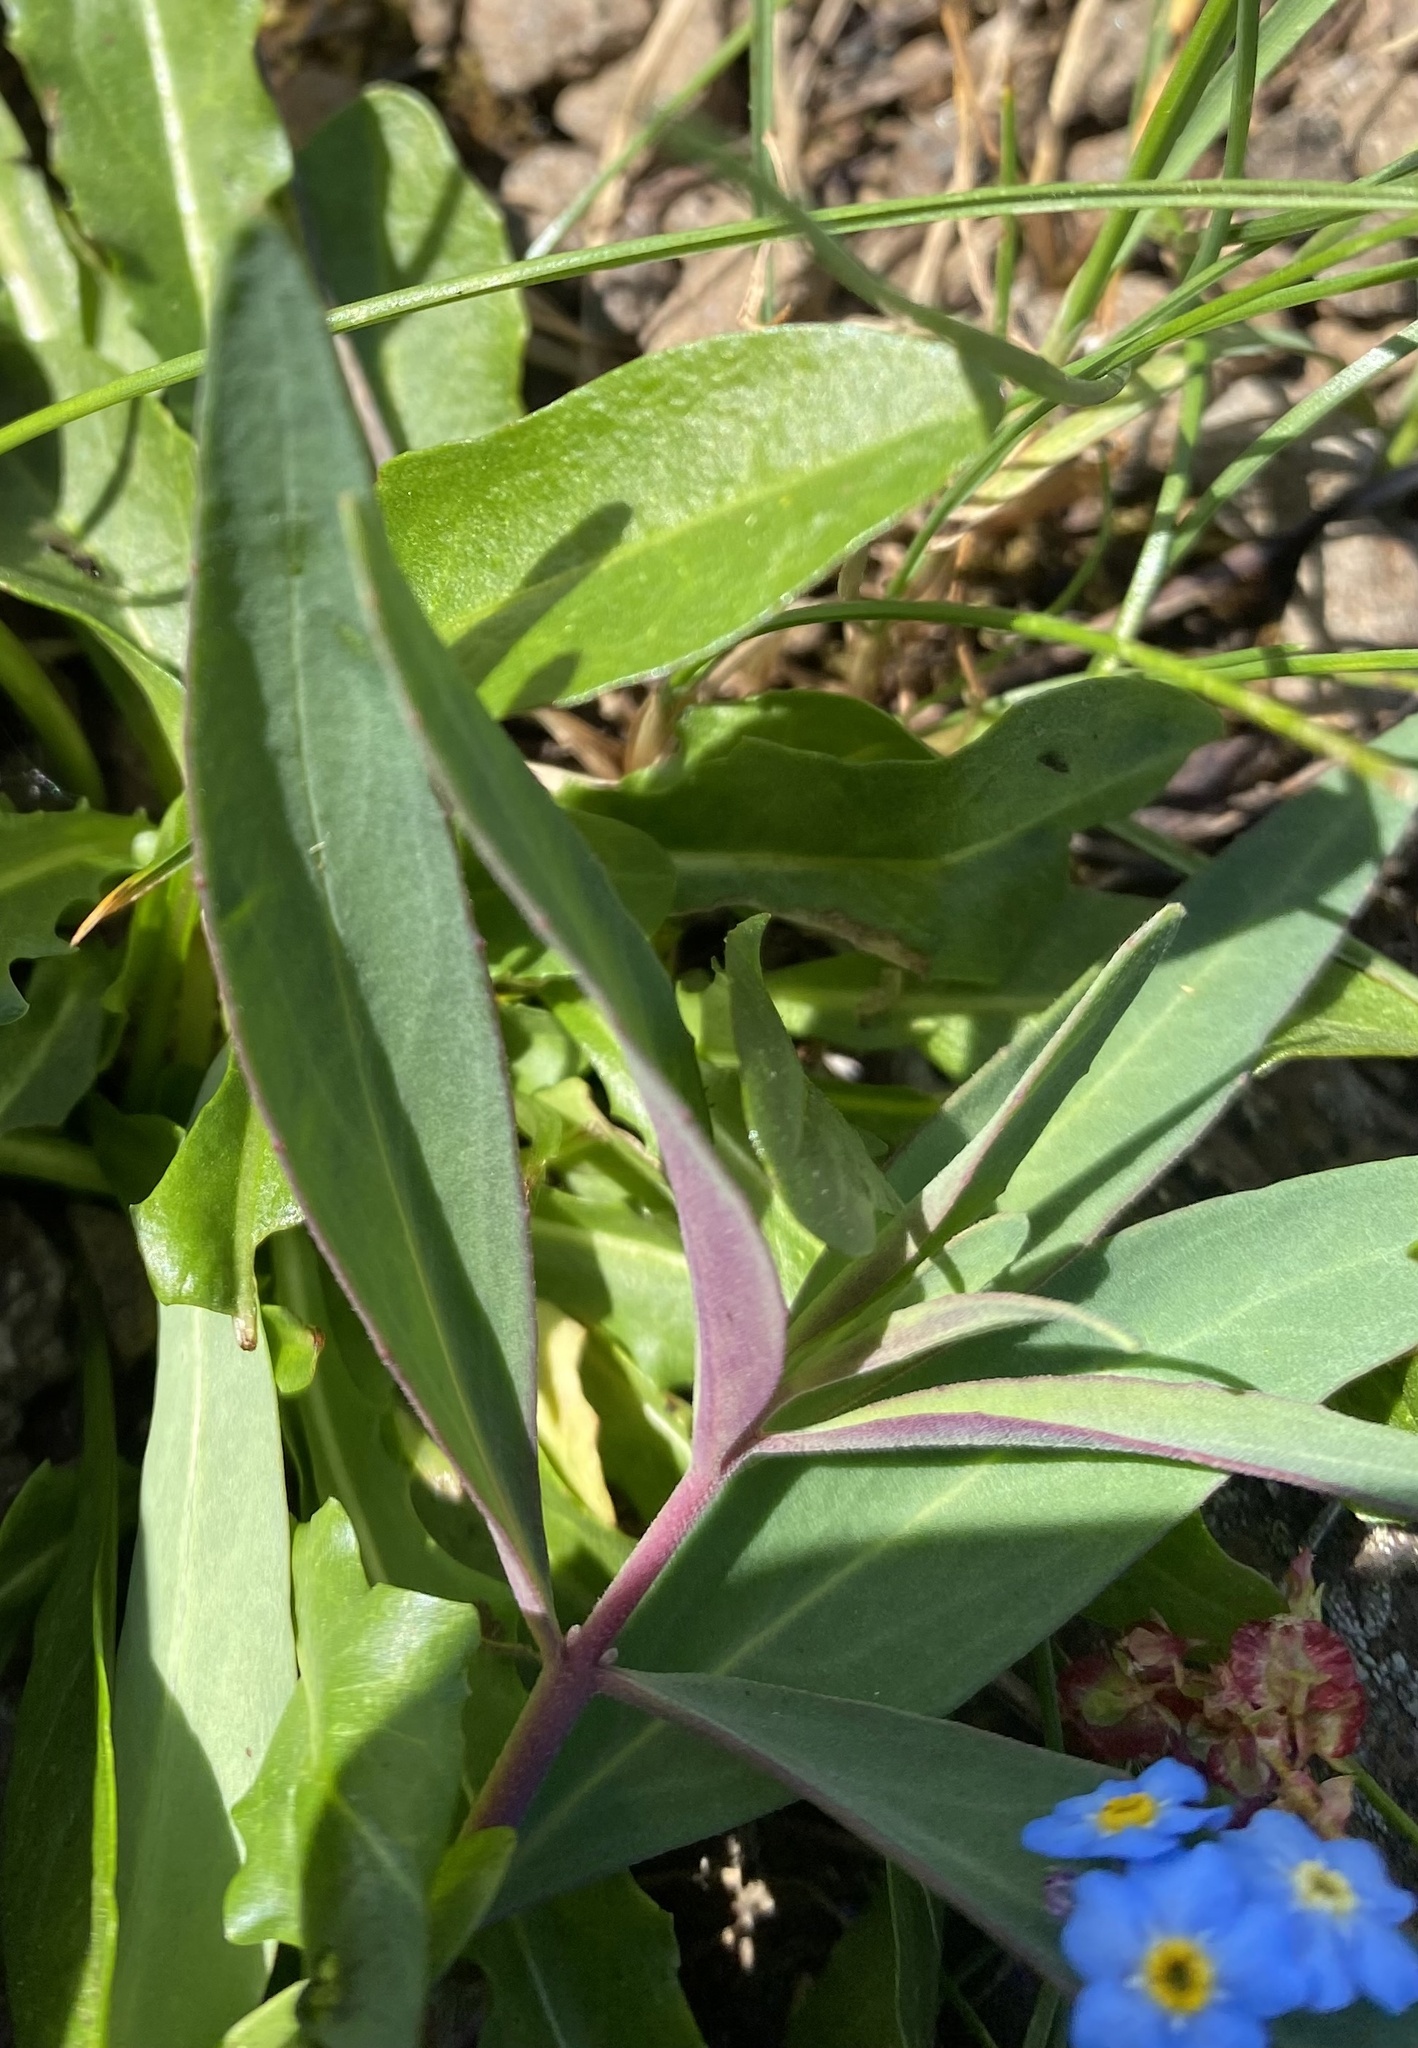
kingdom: Plantae
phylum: Tracheophyta
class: Magnoliopsida
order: Myrtales
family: Onagraceae
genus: Chamaenerion
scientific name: Chamaenerion latifolium
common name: Dwarf fireweed
